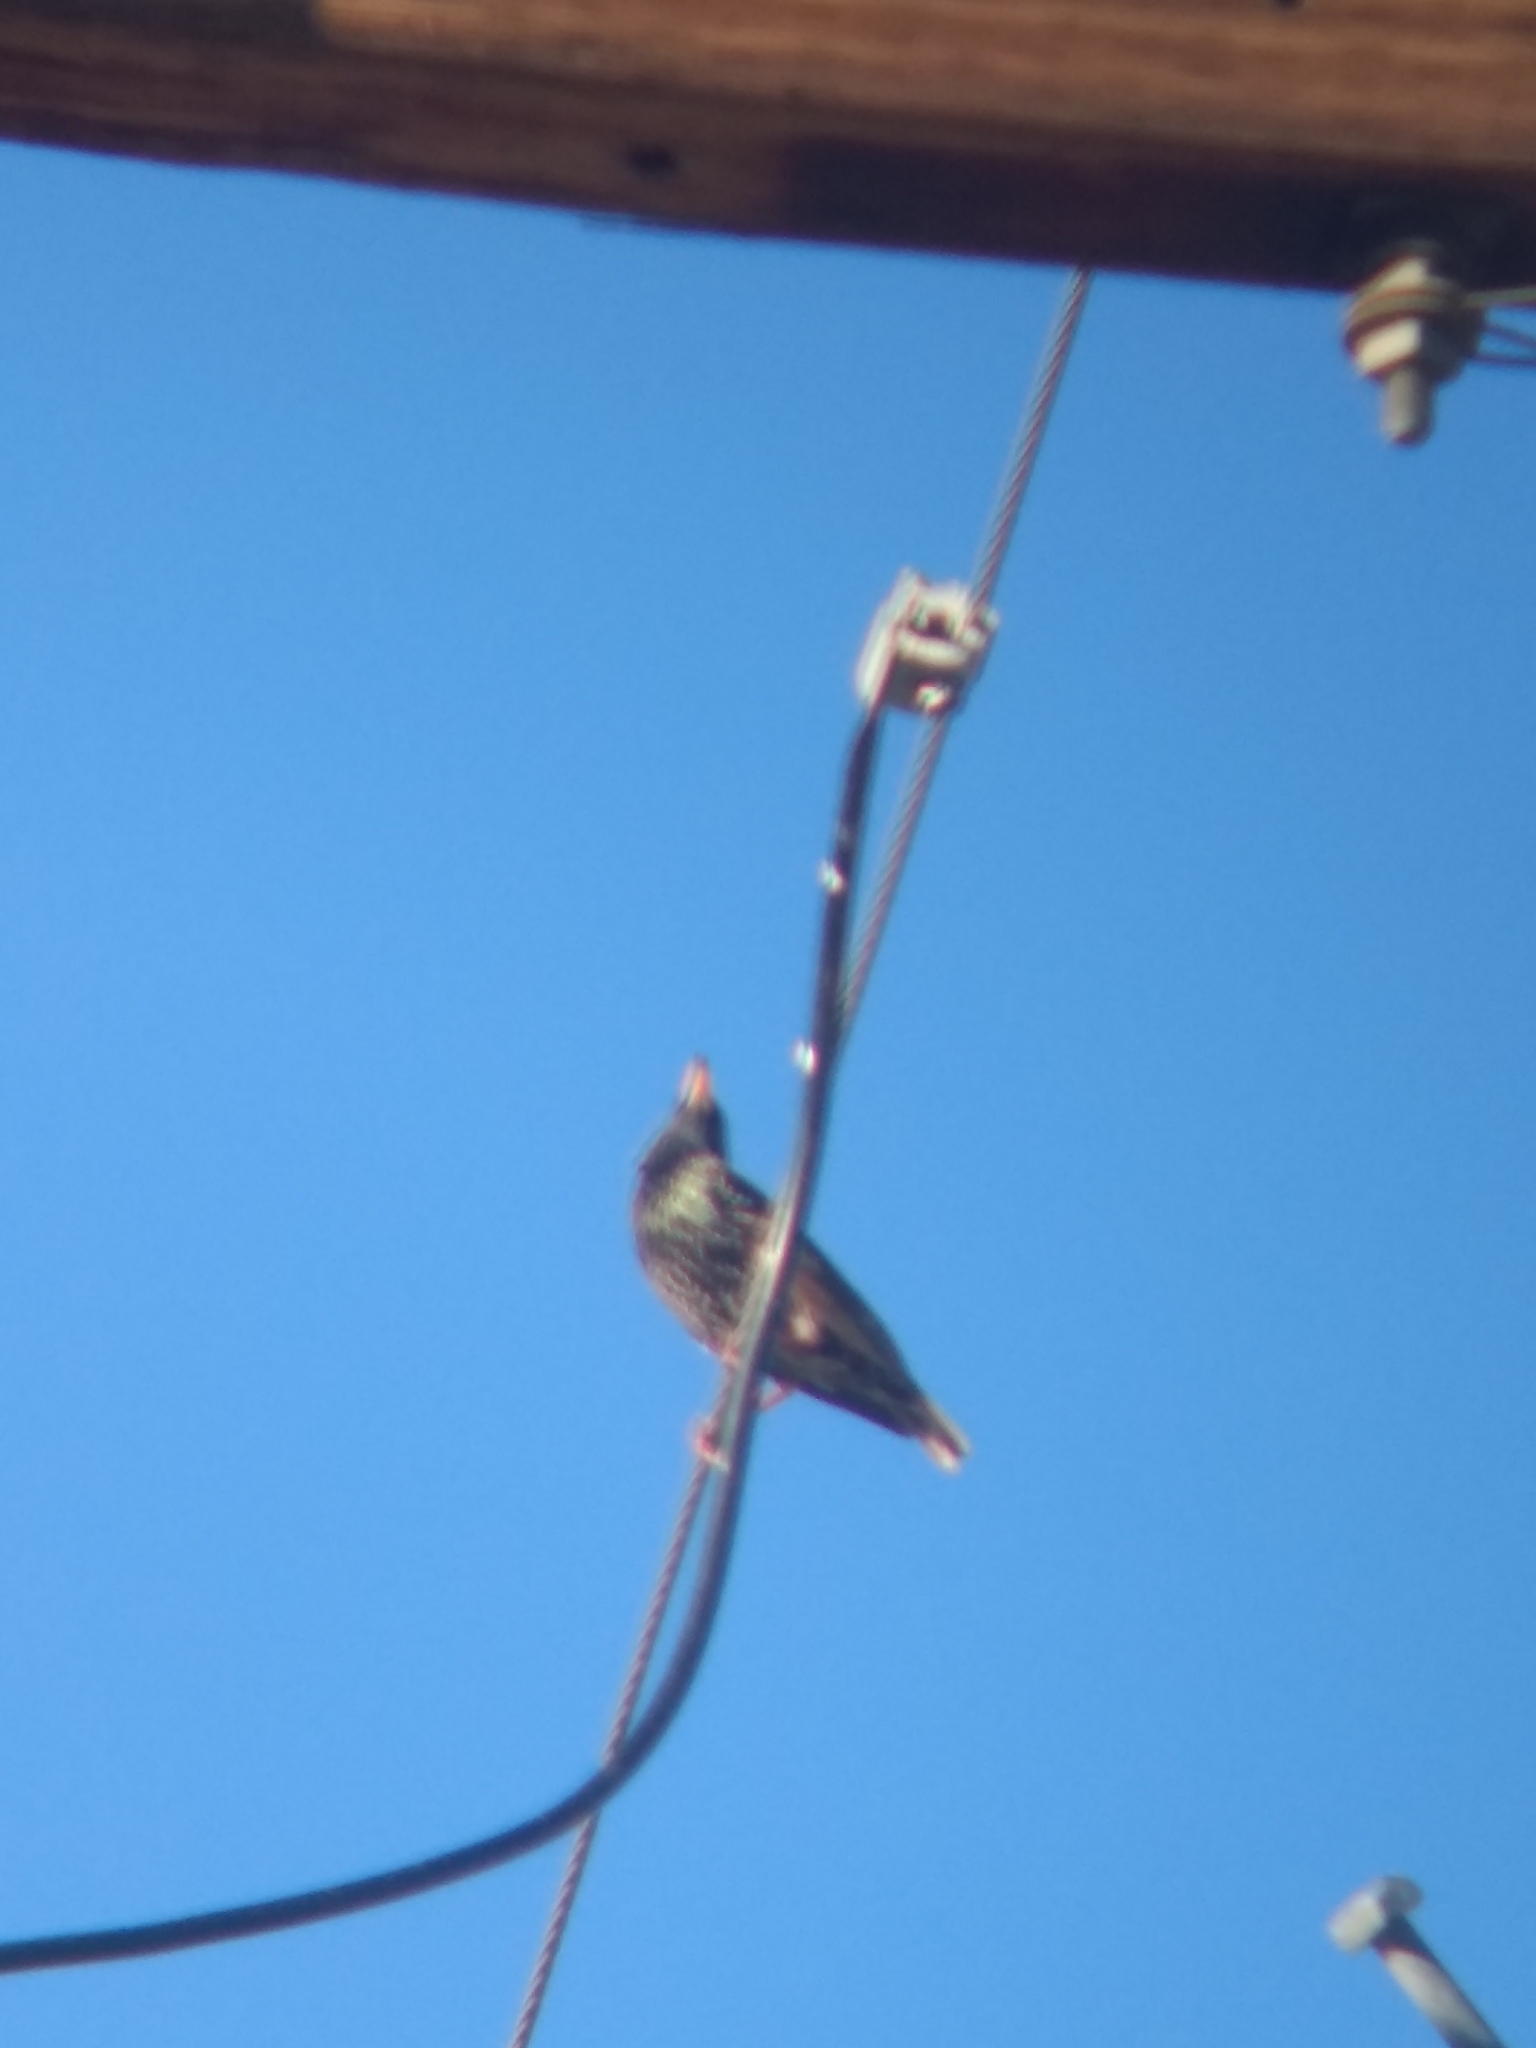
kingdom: Animalia
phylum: Chordata
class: Aves
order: Passeriformes
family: Sturnidae
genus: Sturnus
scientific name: Sturnus vulgaris
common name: Common starling
